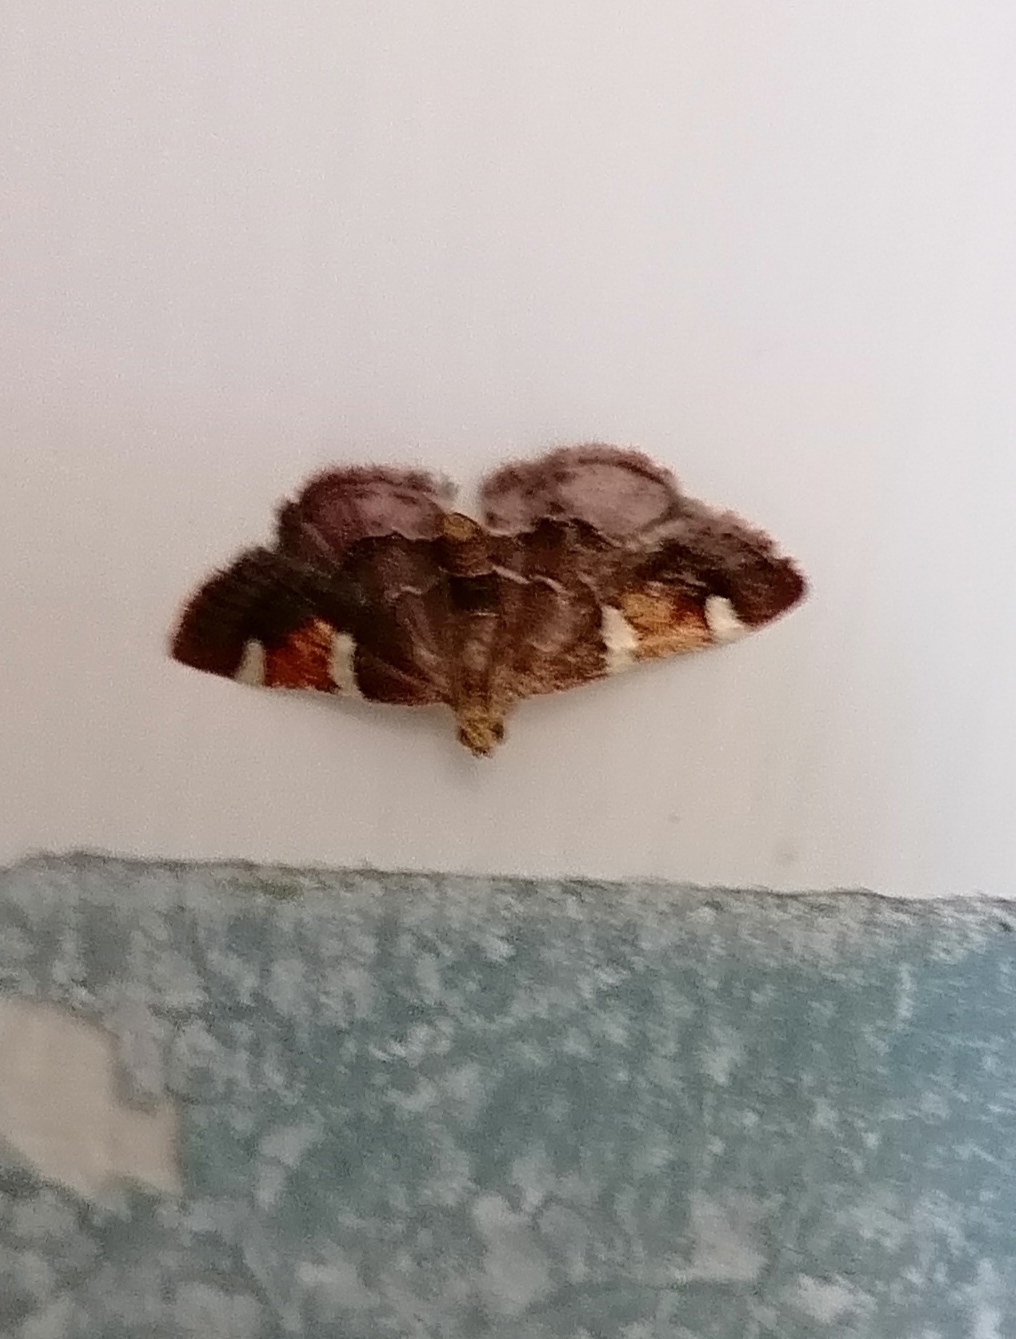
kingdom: Animalia
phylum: Arthropoda
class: Insecta
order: Lepidoptera
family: Pyralidae
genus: Pyralis
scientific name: Pyralis cardinalis
